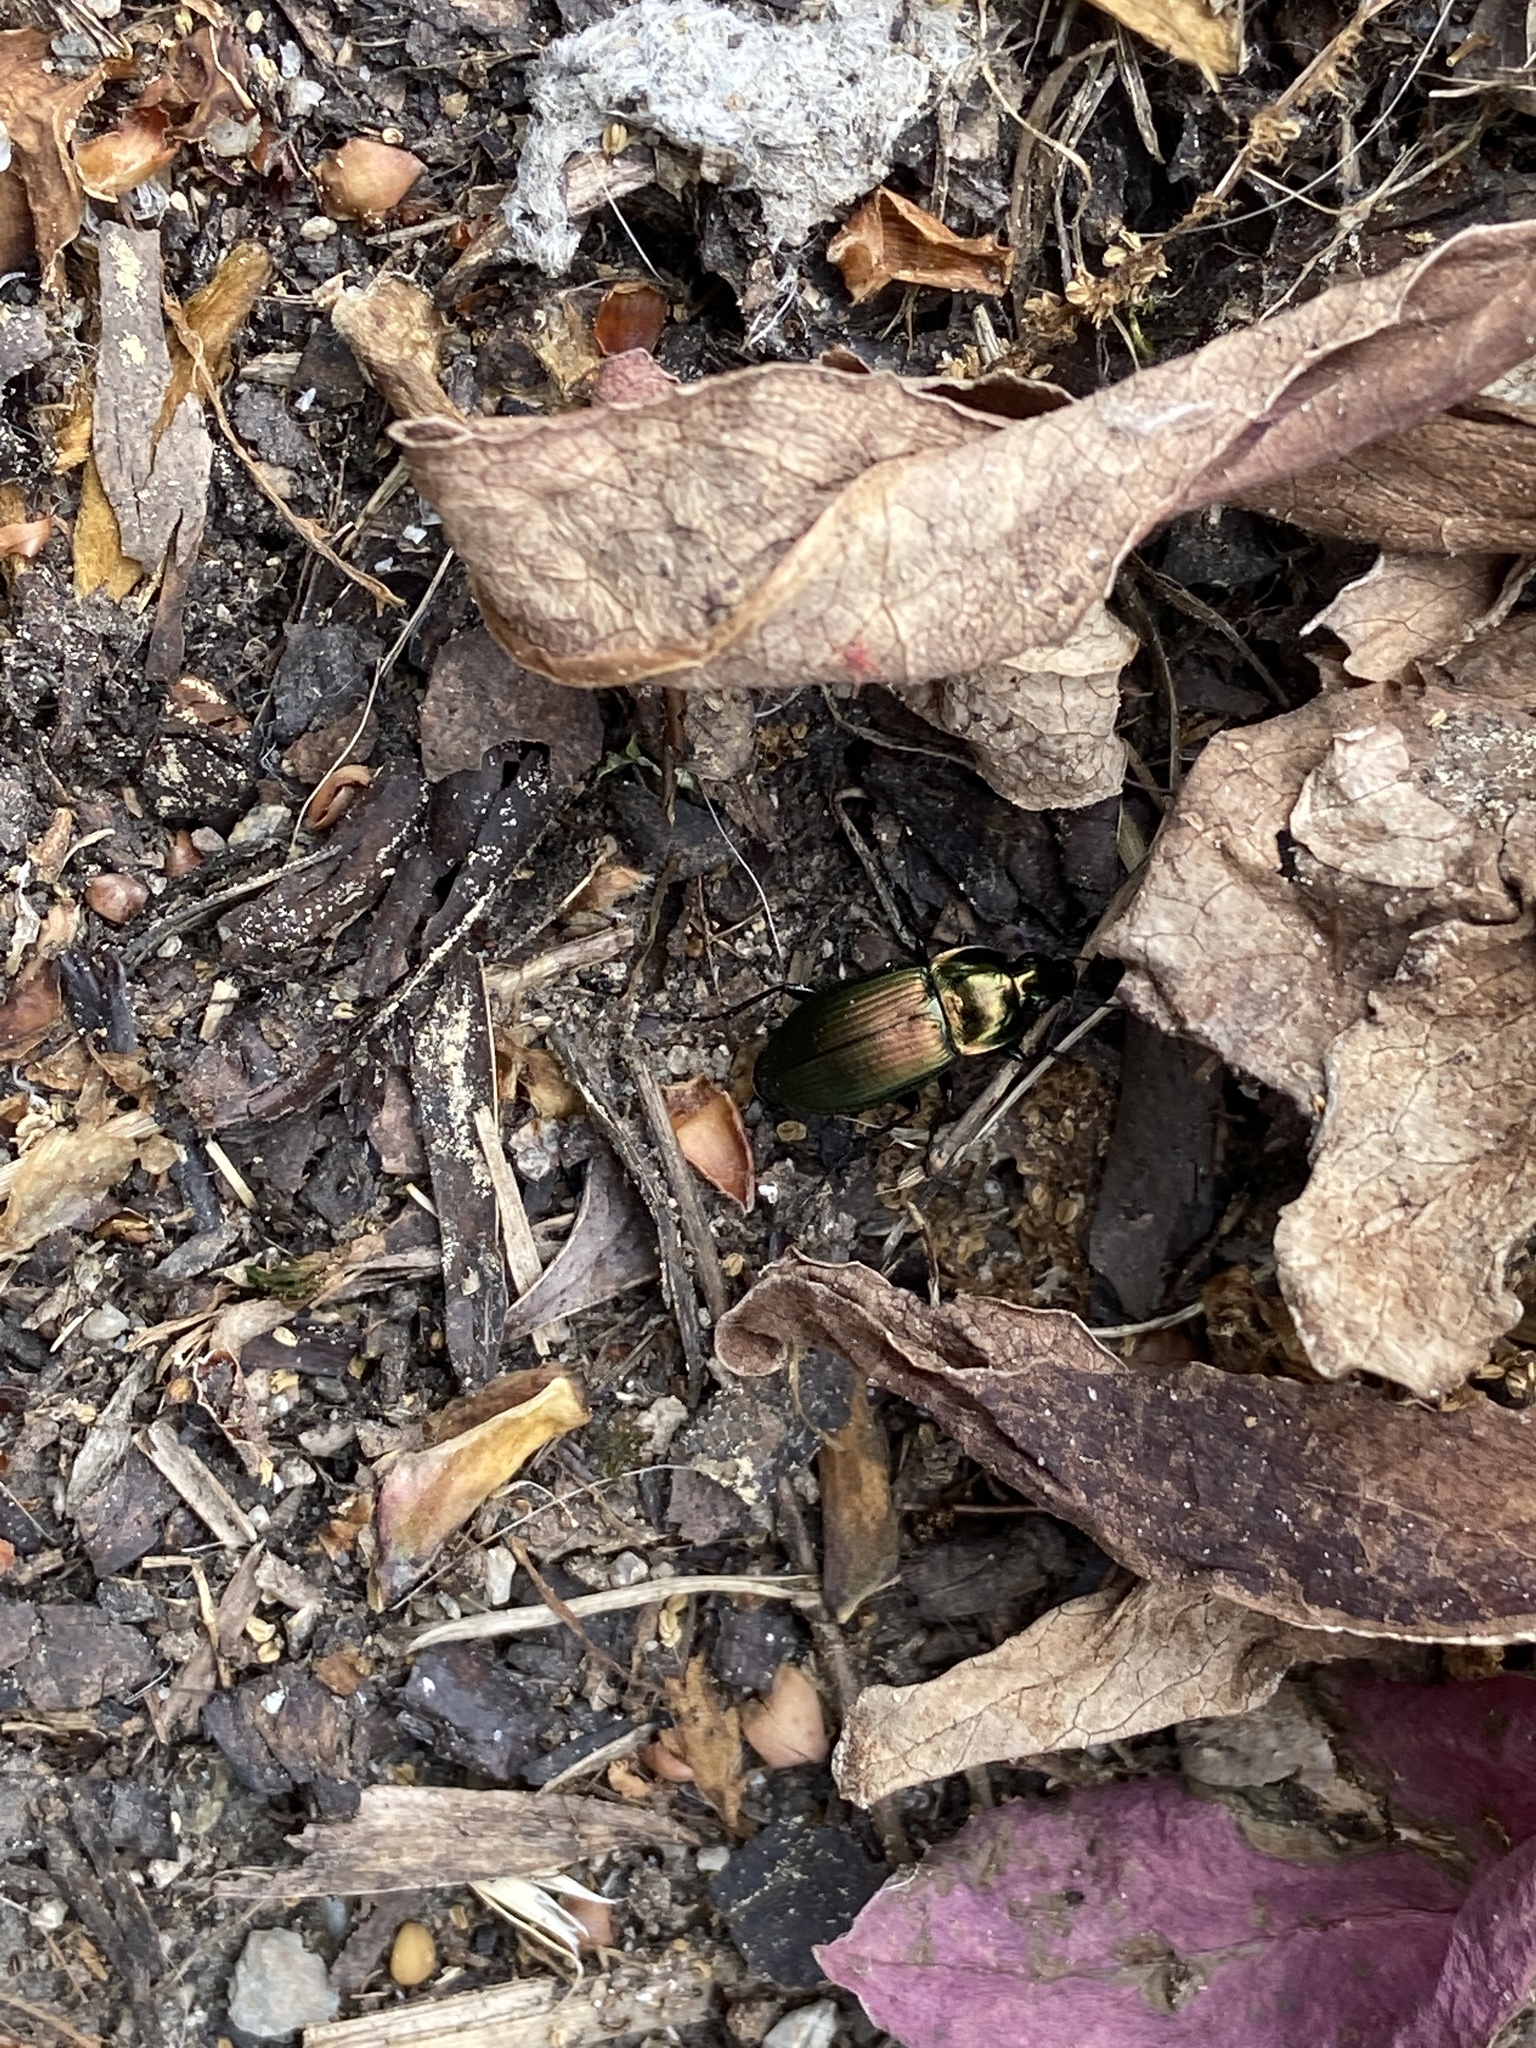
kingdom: Animalia
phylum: Arthropoda
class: Insecta
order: Coleoptera
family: Carabidae
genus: Poecilus
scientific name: Poecilus versicolor
